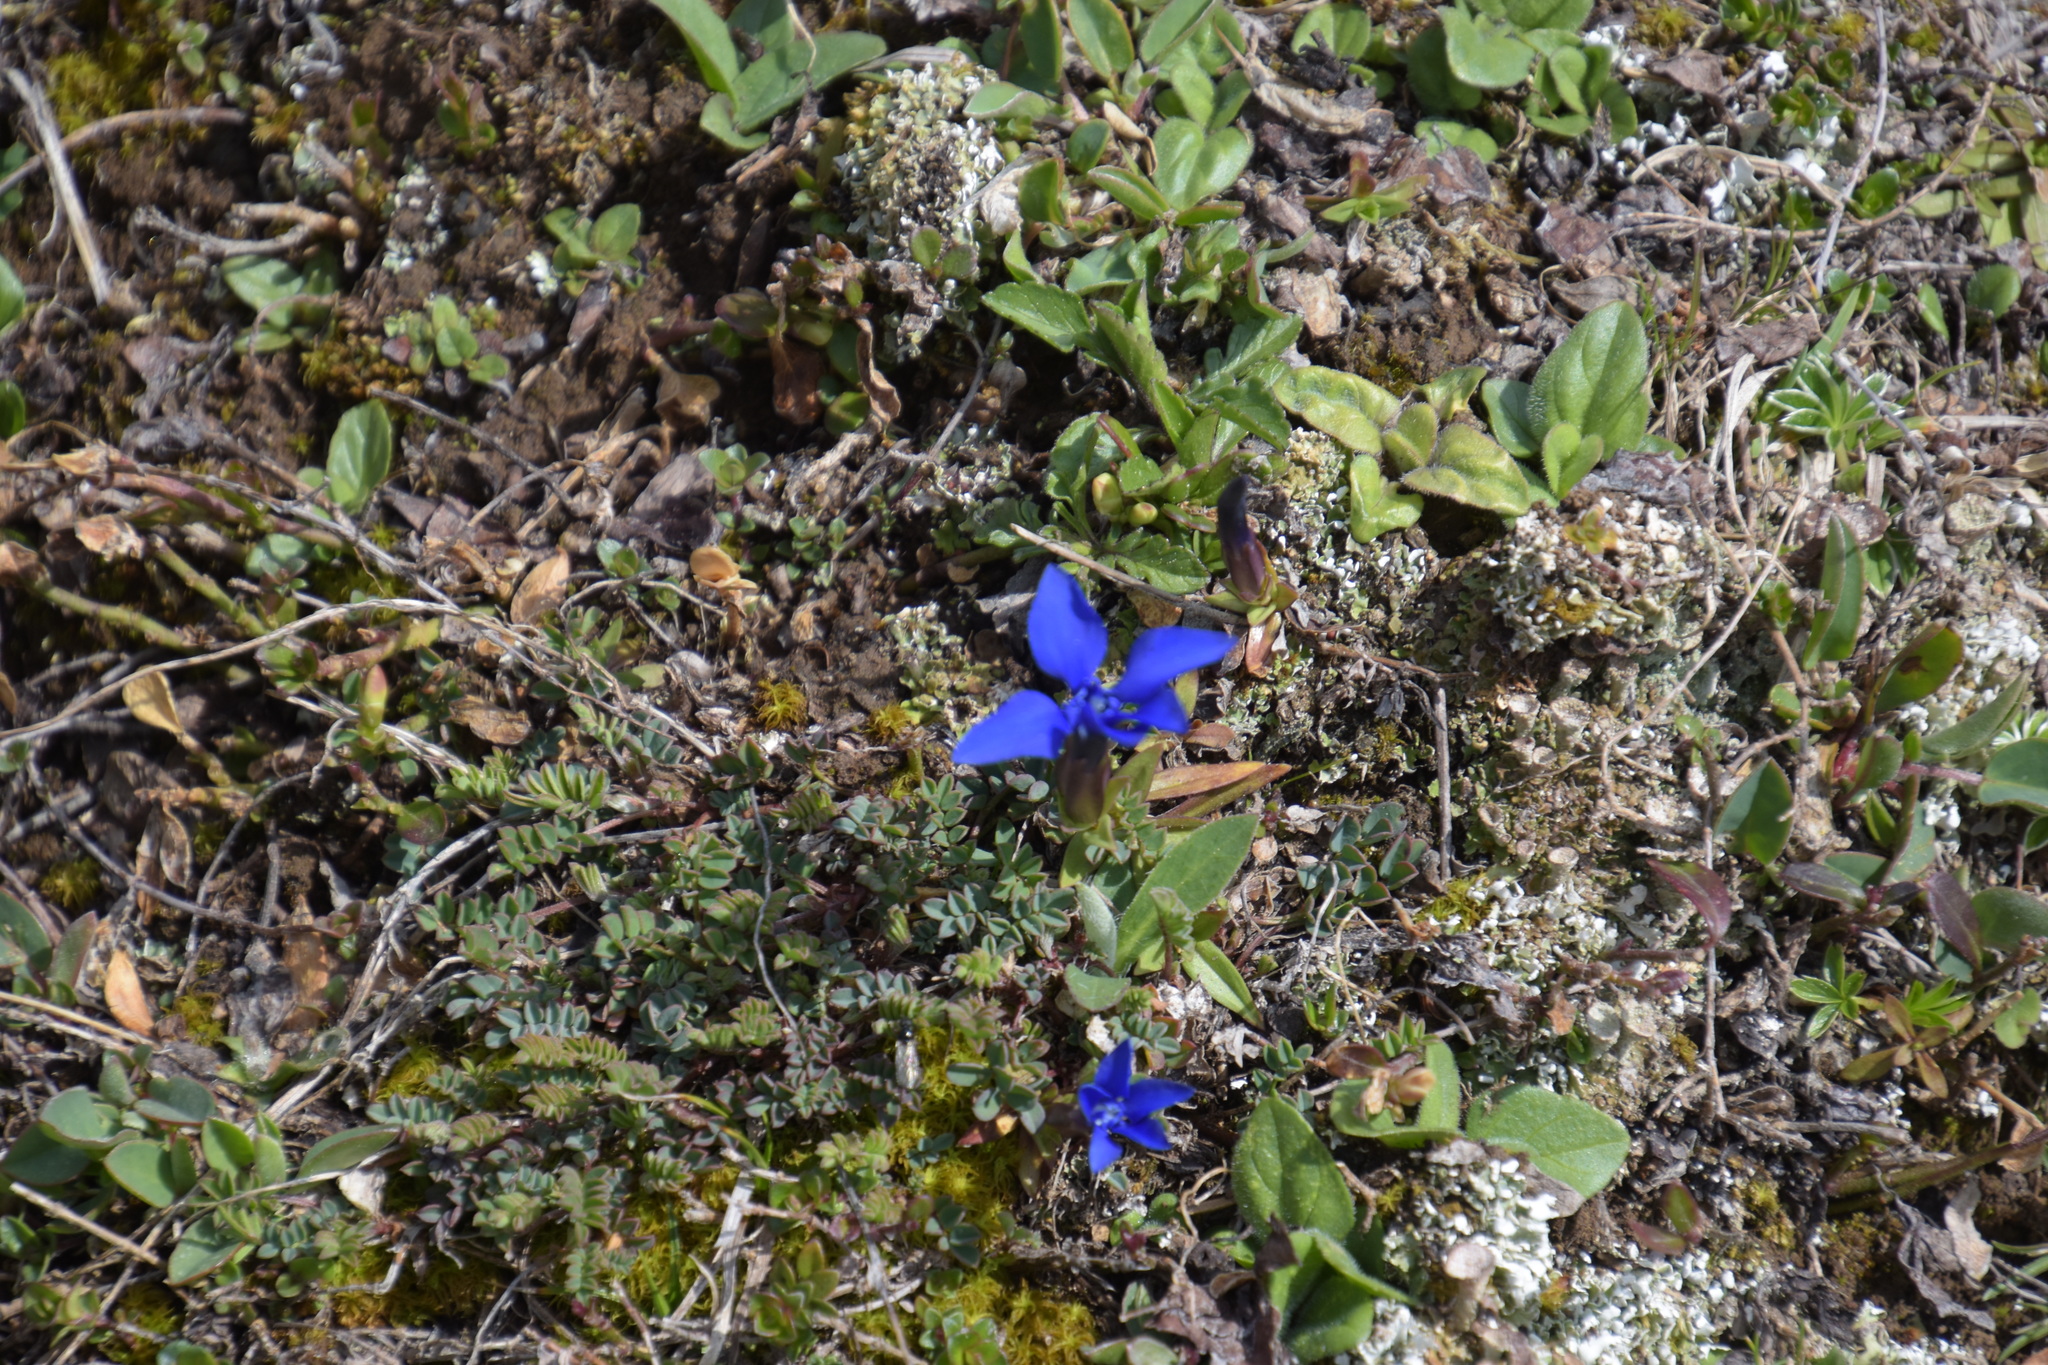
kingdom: Plantae
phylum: Tracheophyta
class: Magnoliopsida
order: Gentianales
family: Gentianaceae
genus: Gentiana
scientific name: Gentiana verna
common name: Spring gentian
